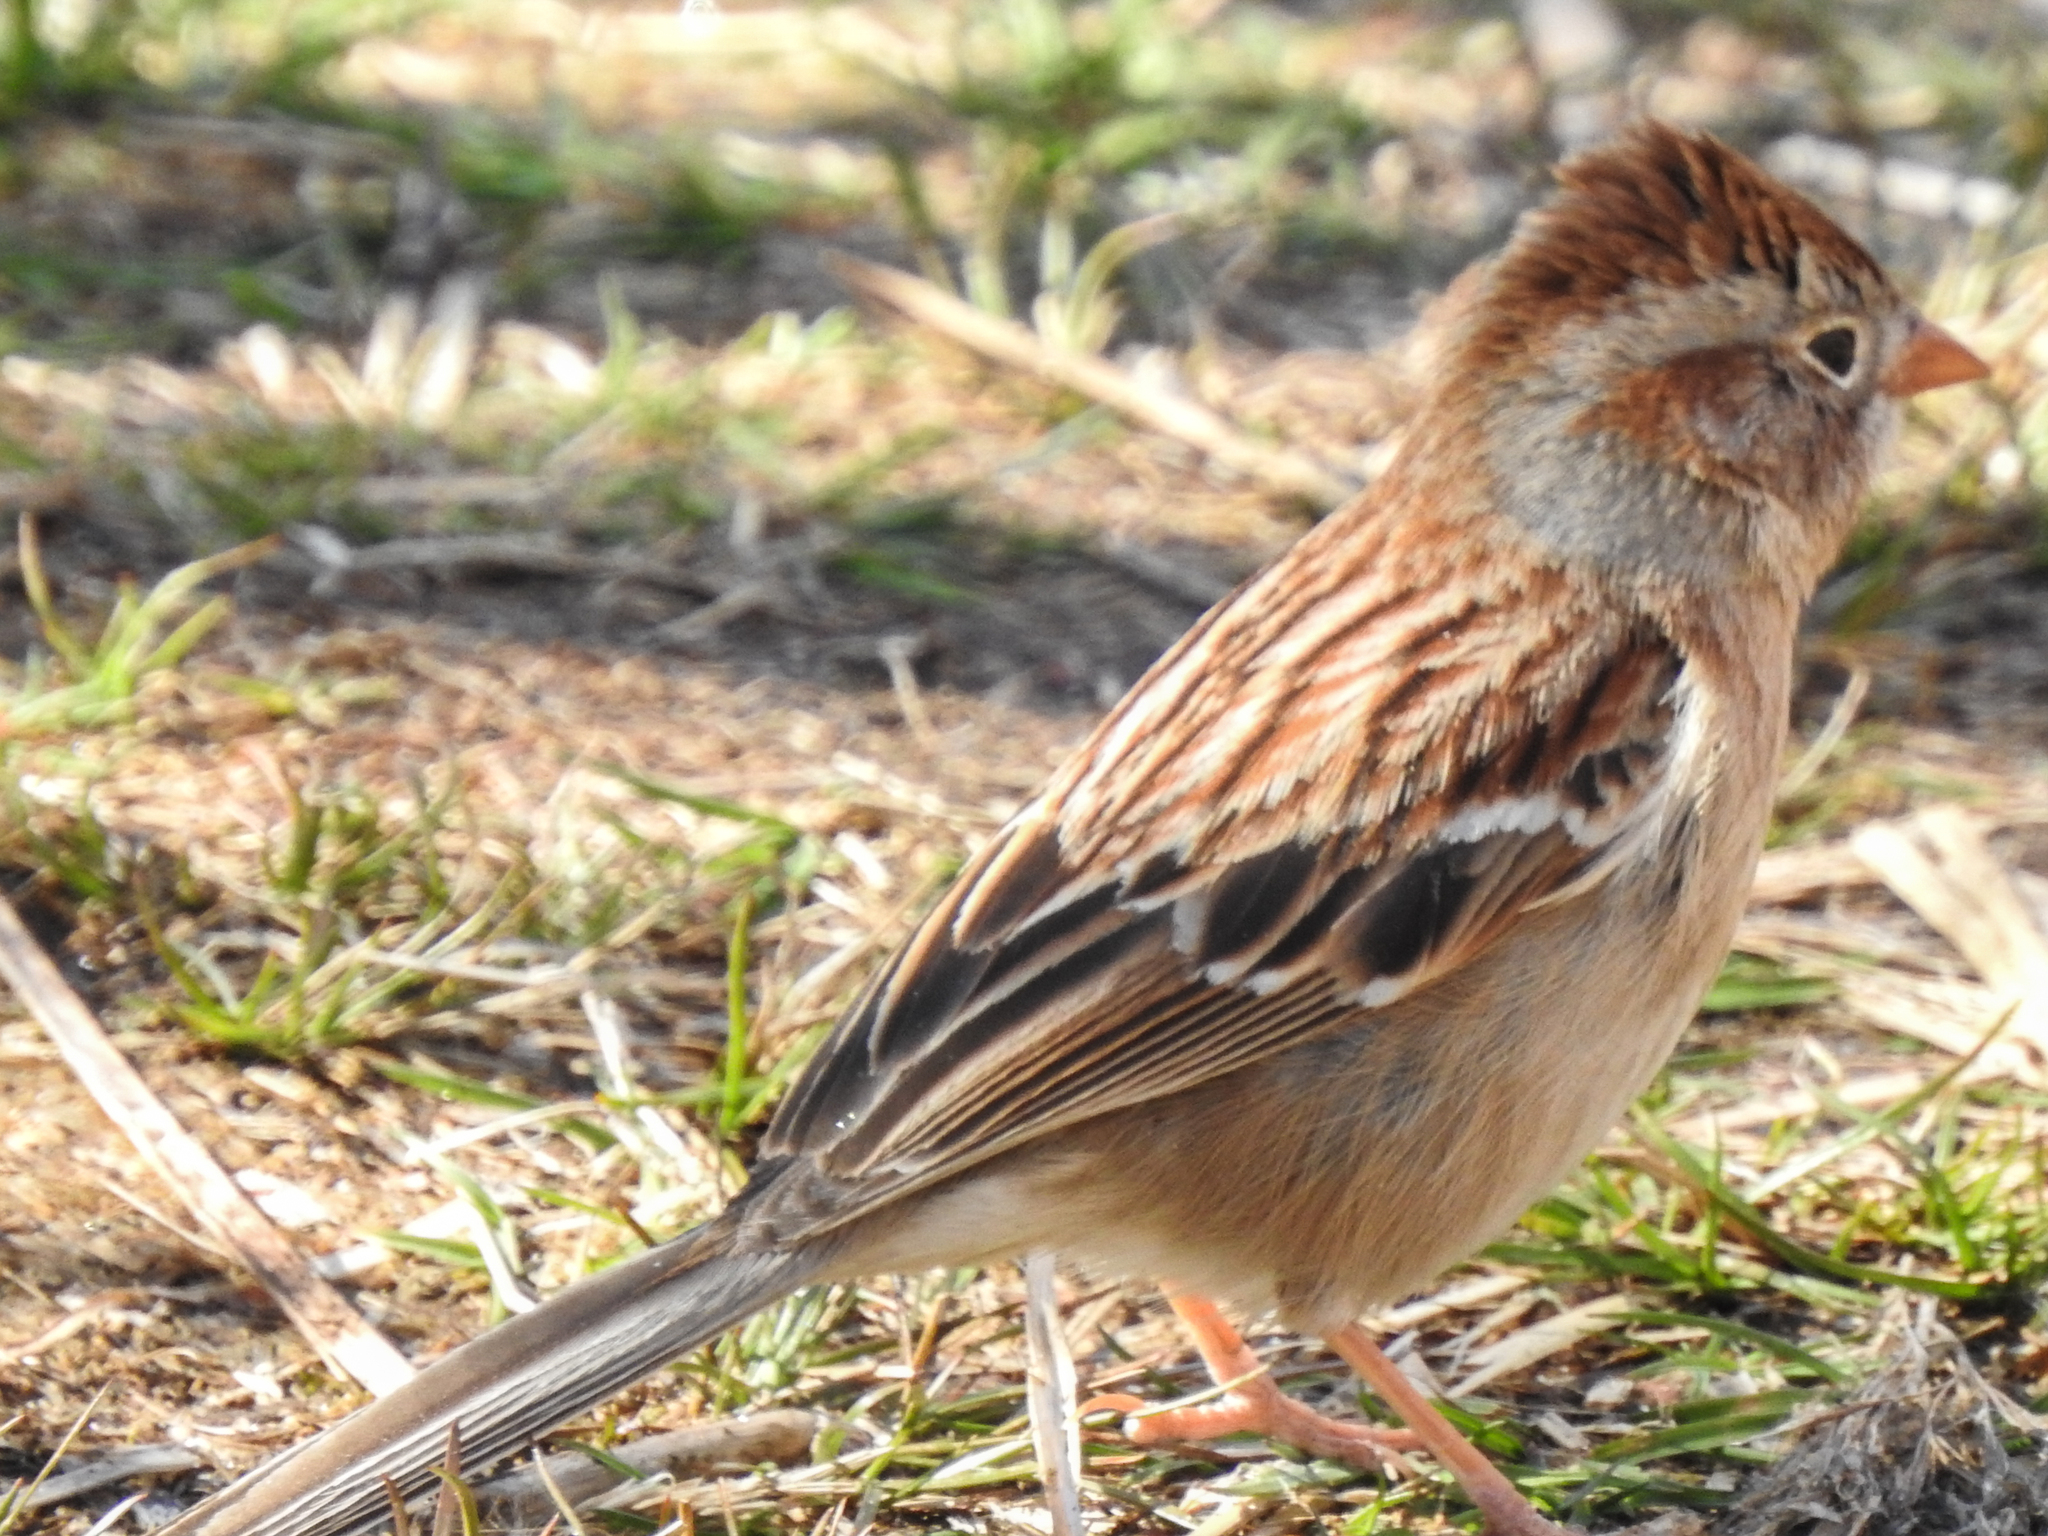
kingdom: Animalia
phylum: Chordata
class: Aves
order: Passeriformes
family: Passerellidae
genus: Spizella
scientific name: Spizella pusilla
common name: Field sparrow
